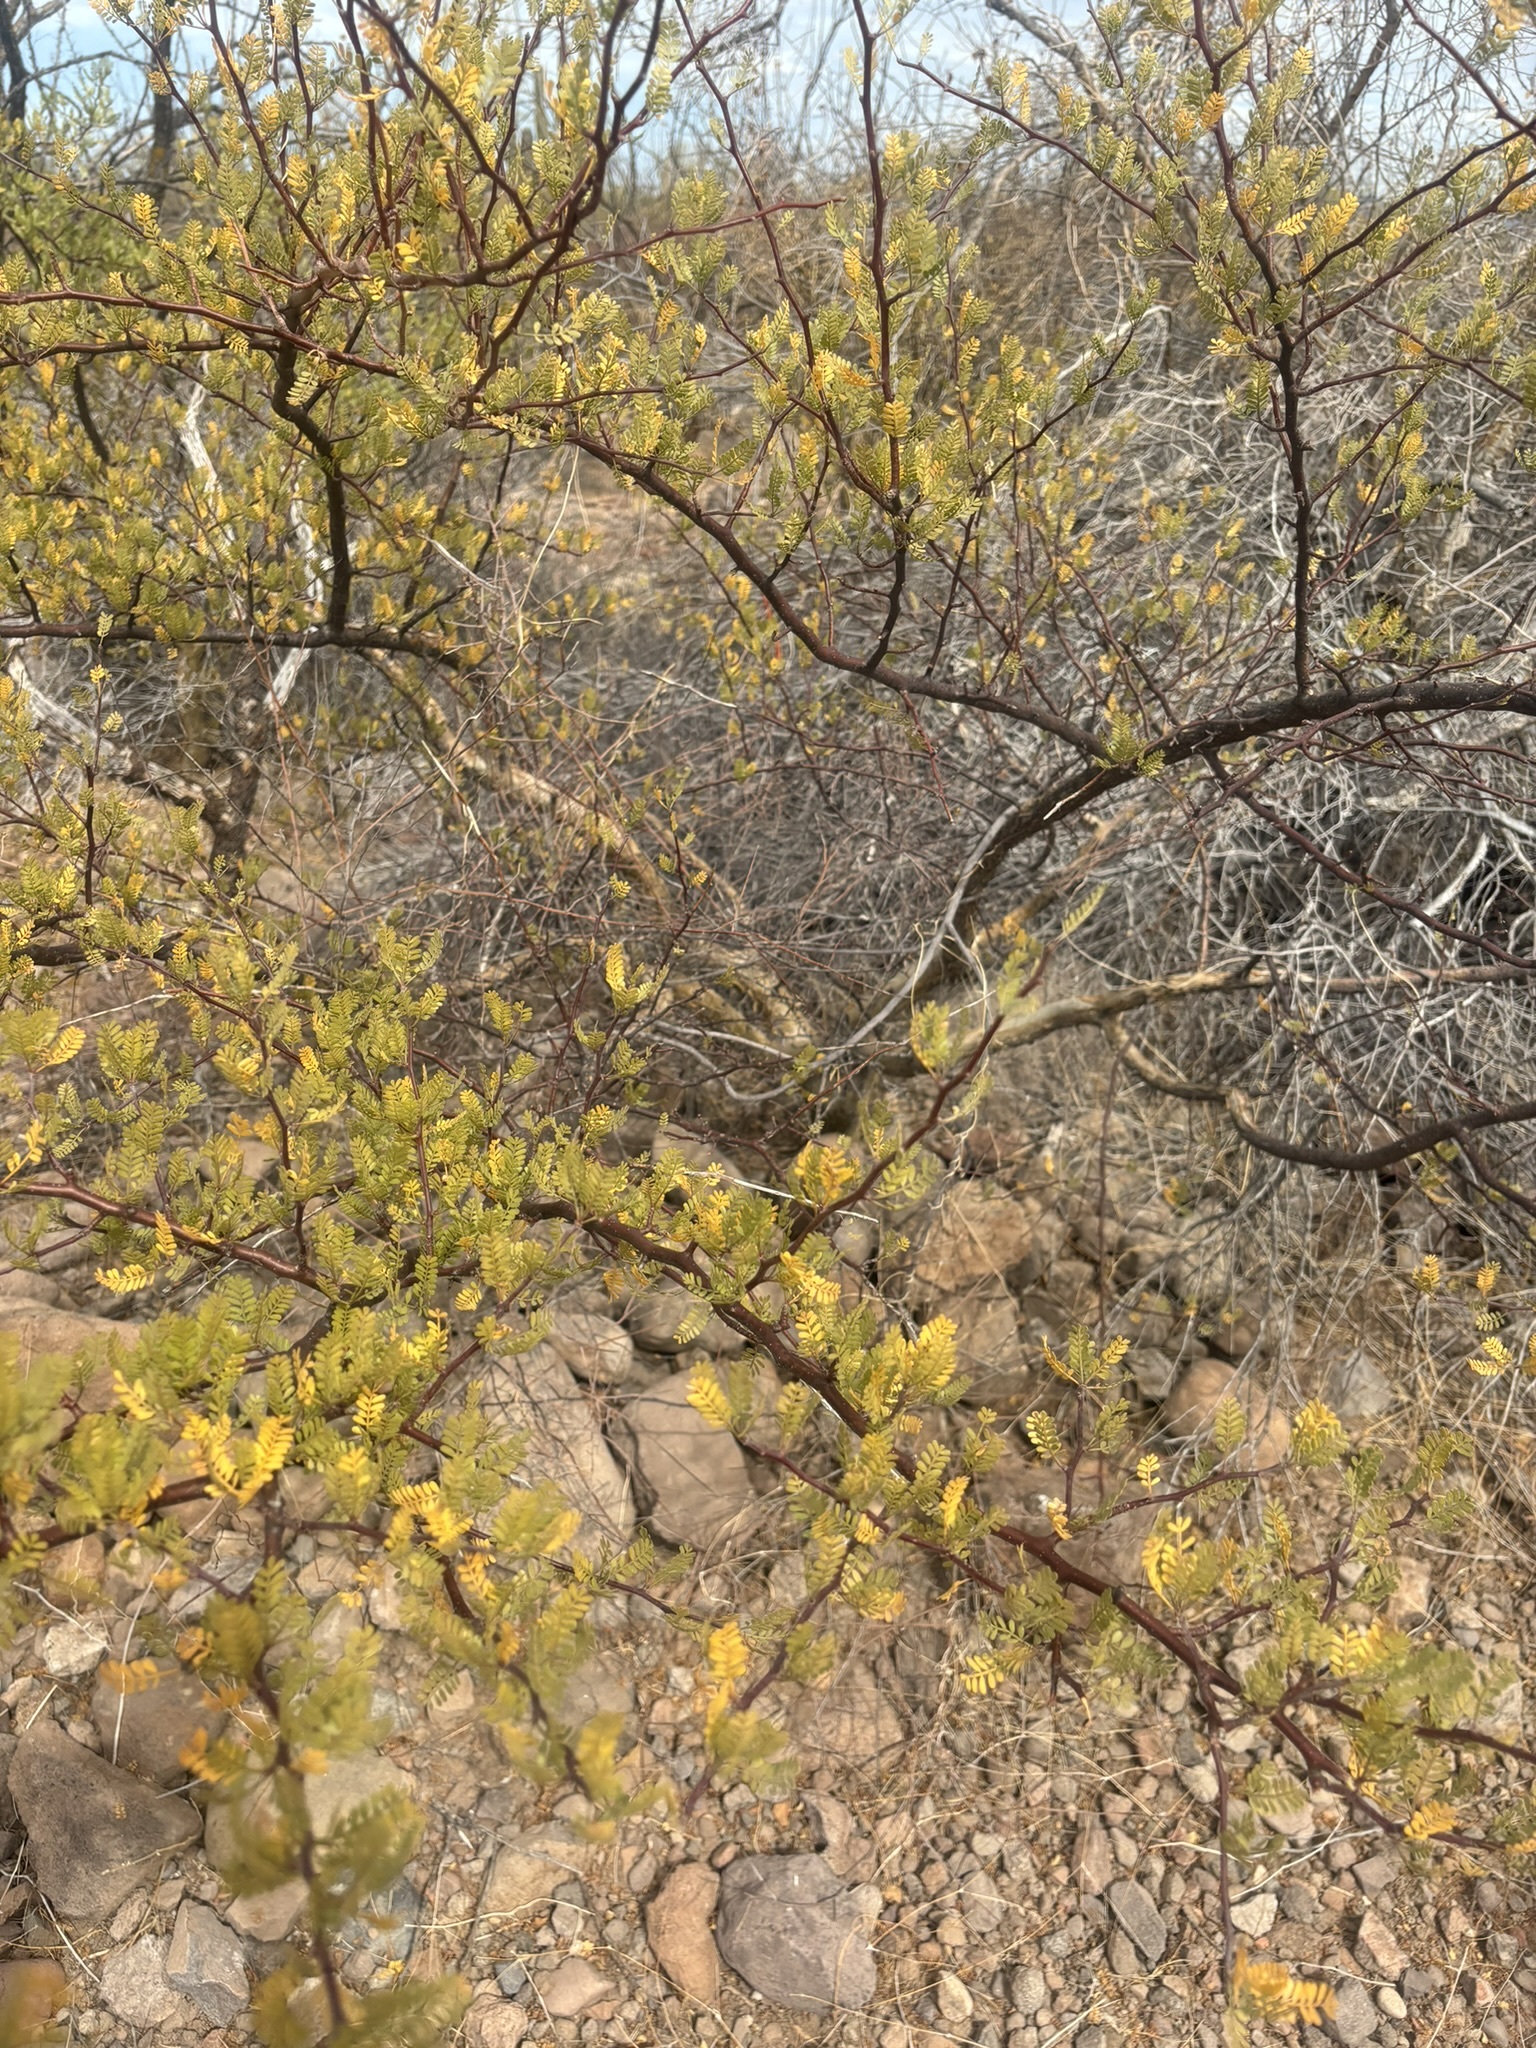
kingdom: Plantae
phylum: Tracheophyta
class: Magnoliopsida
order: Sapindales
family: Burseraceae
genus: Bursera
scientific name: Bursera microphylla
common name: Elephant tree
